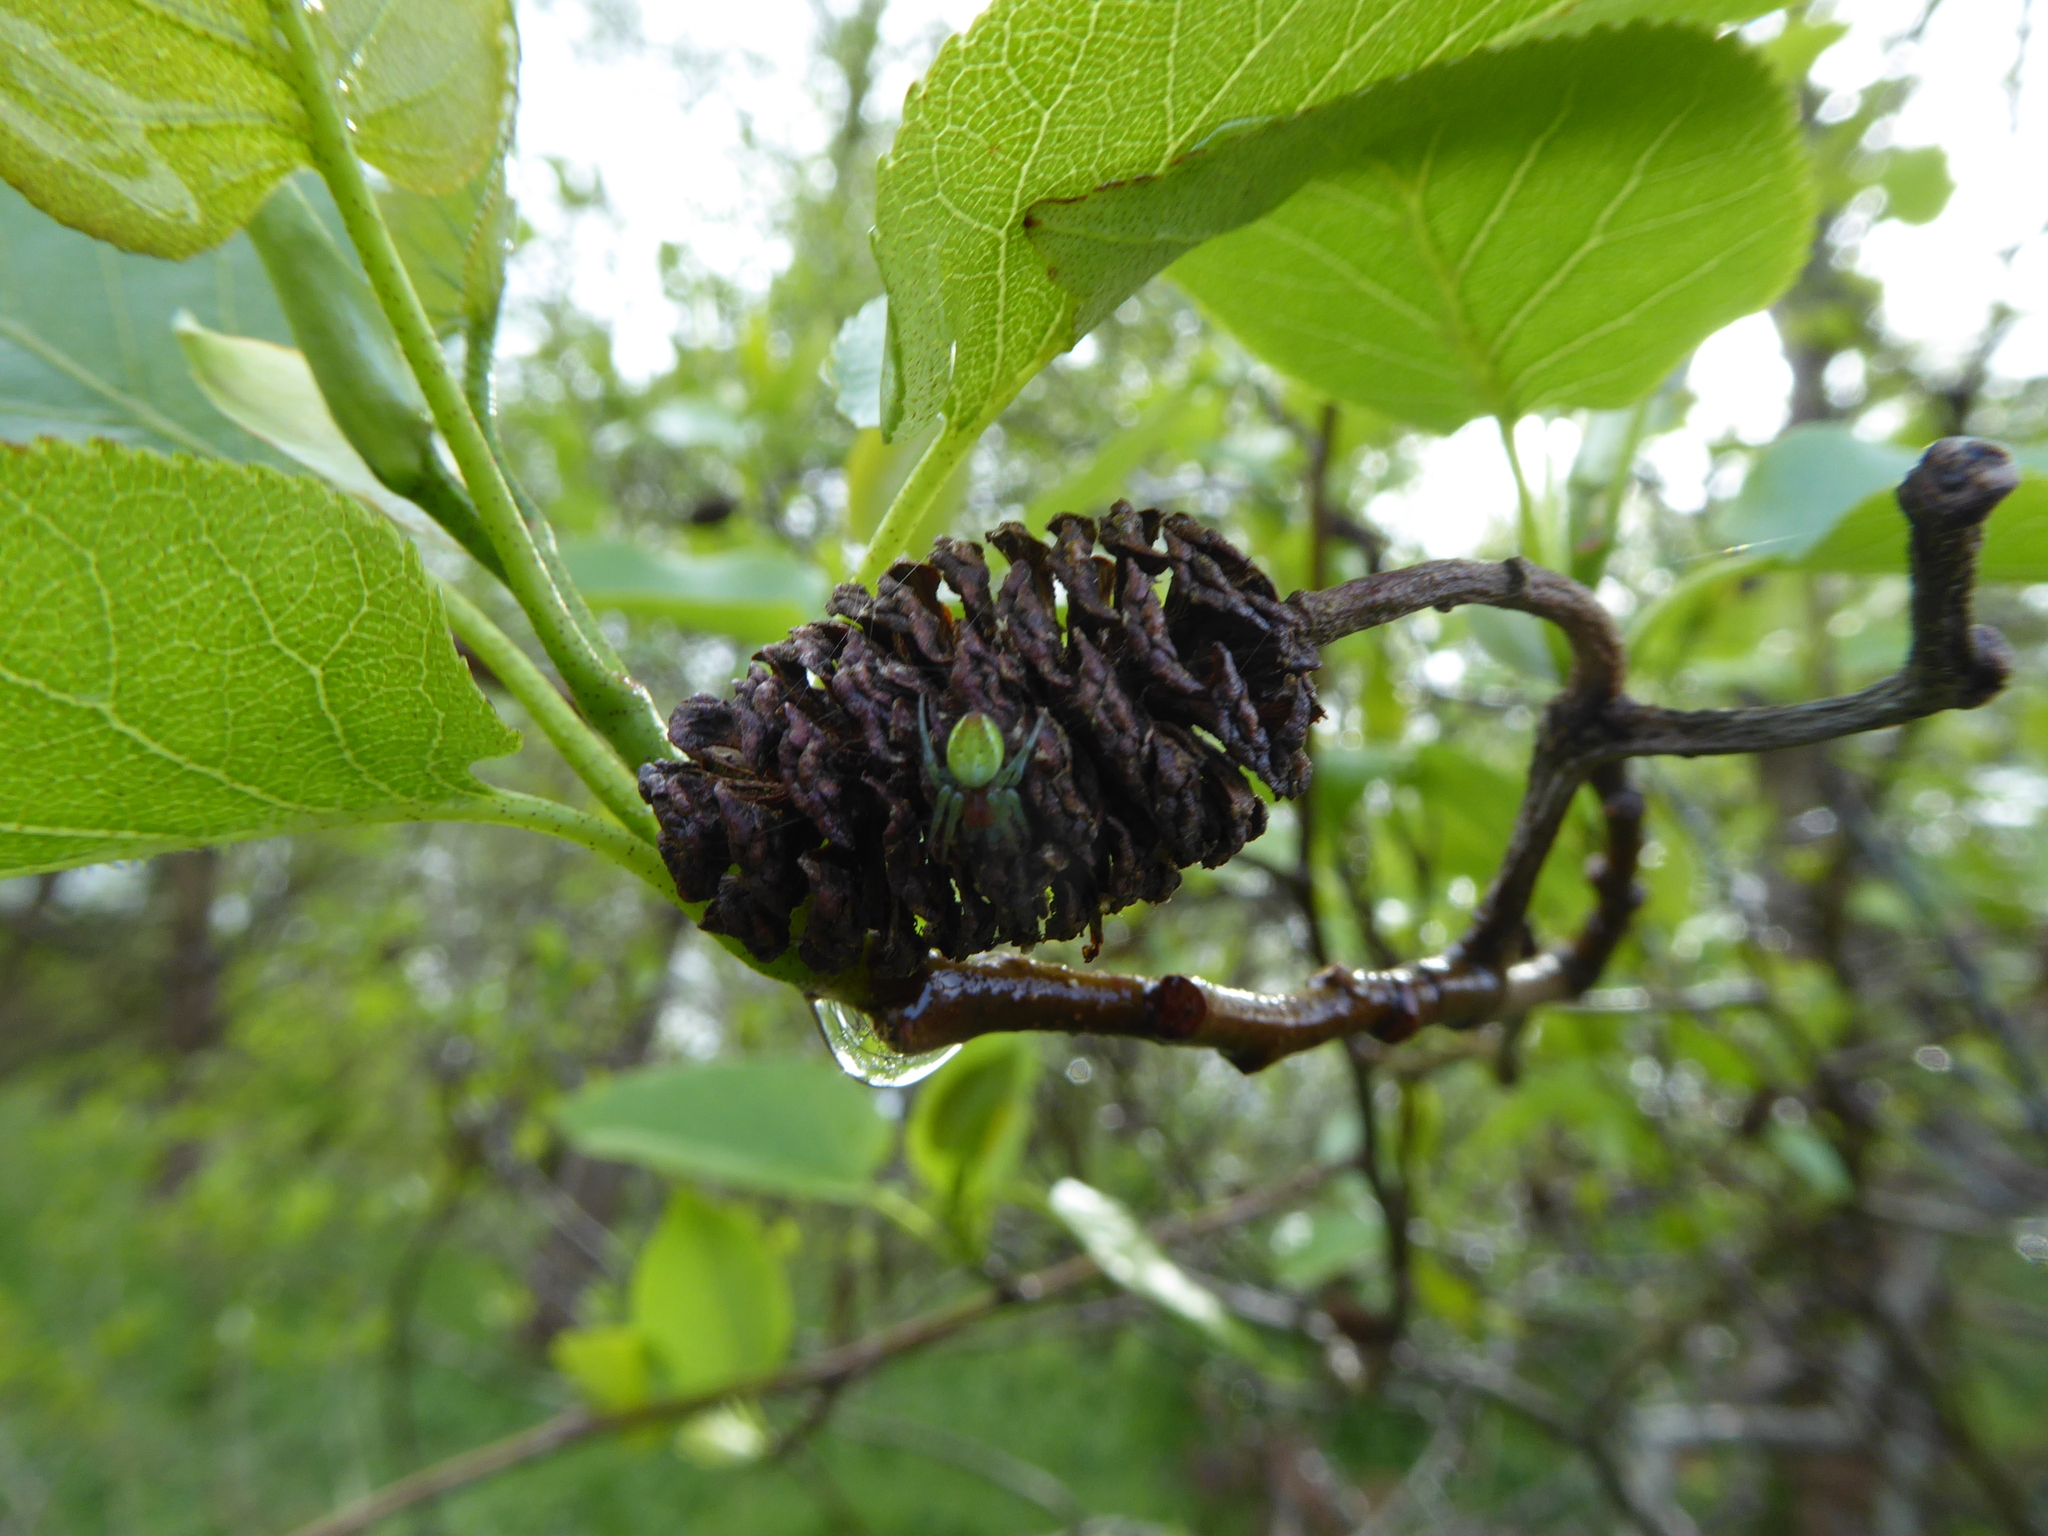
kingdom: Animalia
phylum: Arthropoda
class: Arachnida
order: Araneae
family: Araneidae
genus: Araniella
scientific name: Araniella
